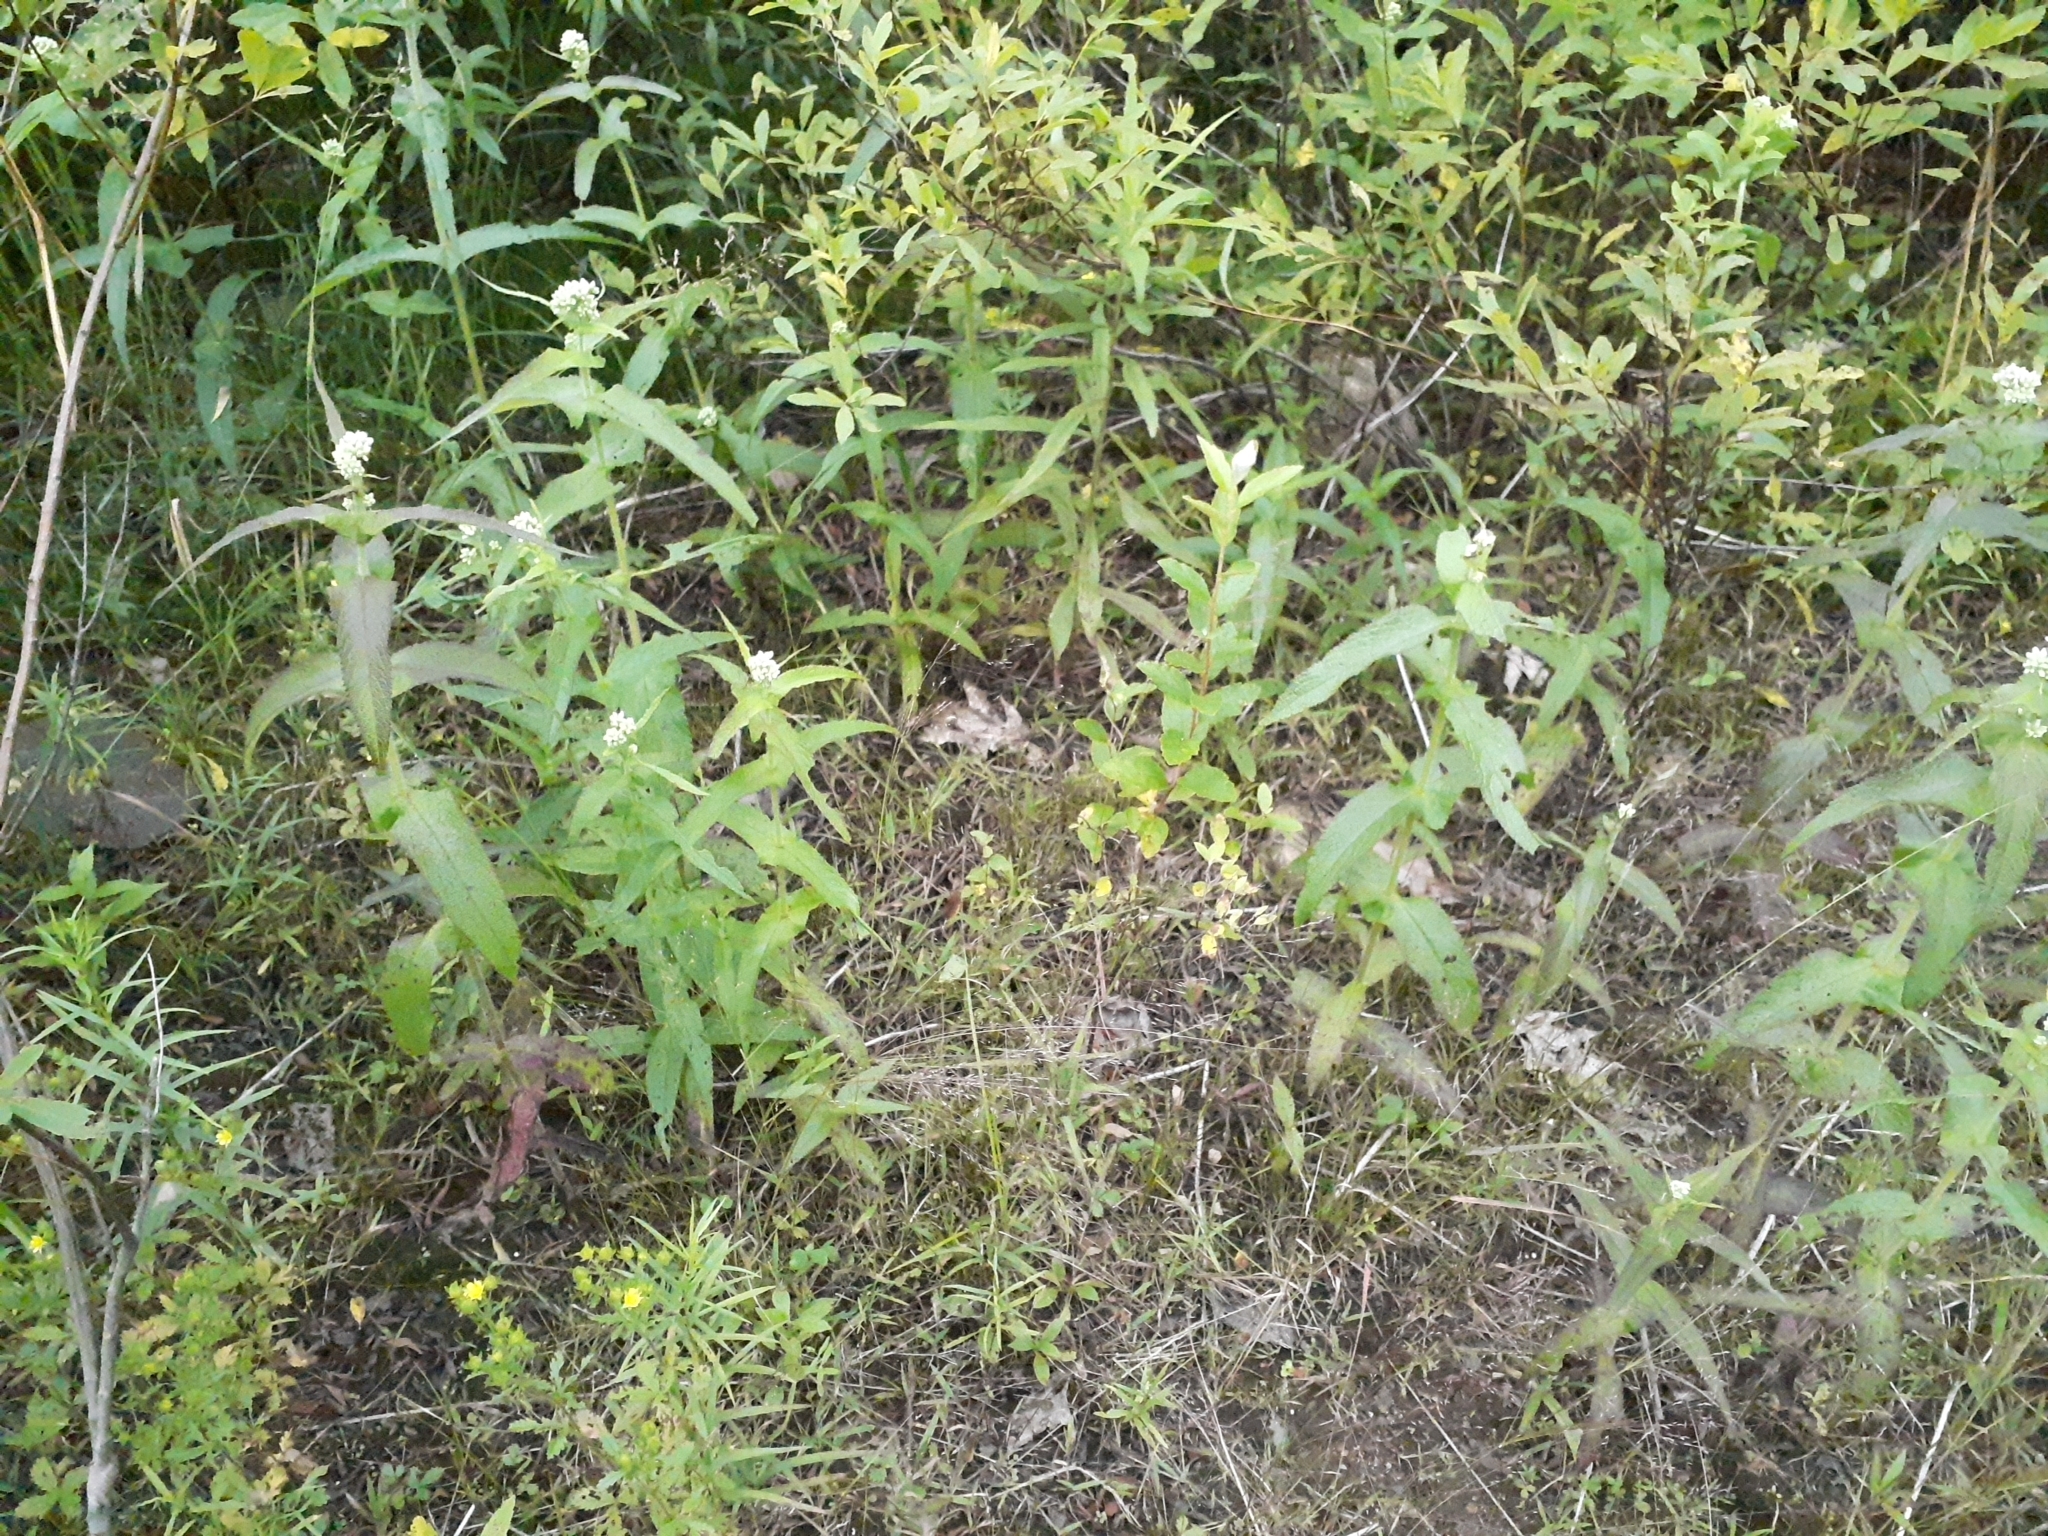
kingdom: Plantae
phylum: Tracheophyta
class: Magnoliopsida
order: Asterales
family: Asteraceae
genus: Eupatorium
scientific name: Eupatorium perfoliatum
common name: Boneset
